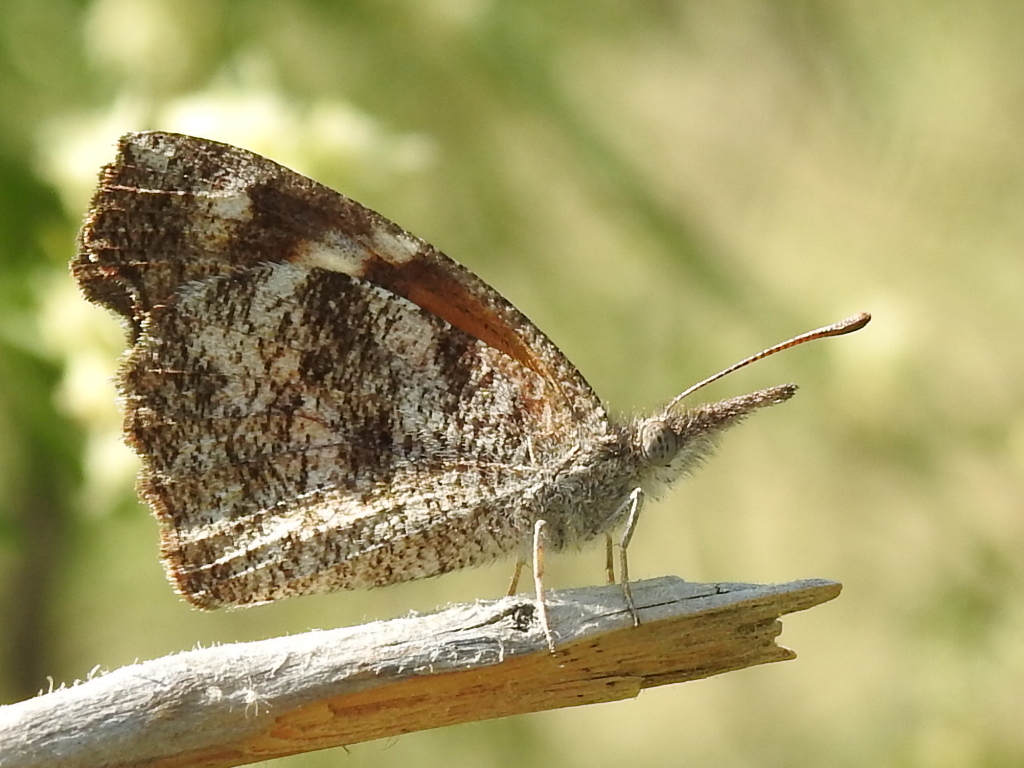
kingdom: Animalia
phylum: Arthropoda
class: Insecta
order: Lepidoptera
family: Nymphalidae
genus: Libytheana
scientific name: Libytheana carinenta
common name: American snout
